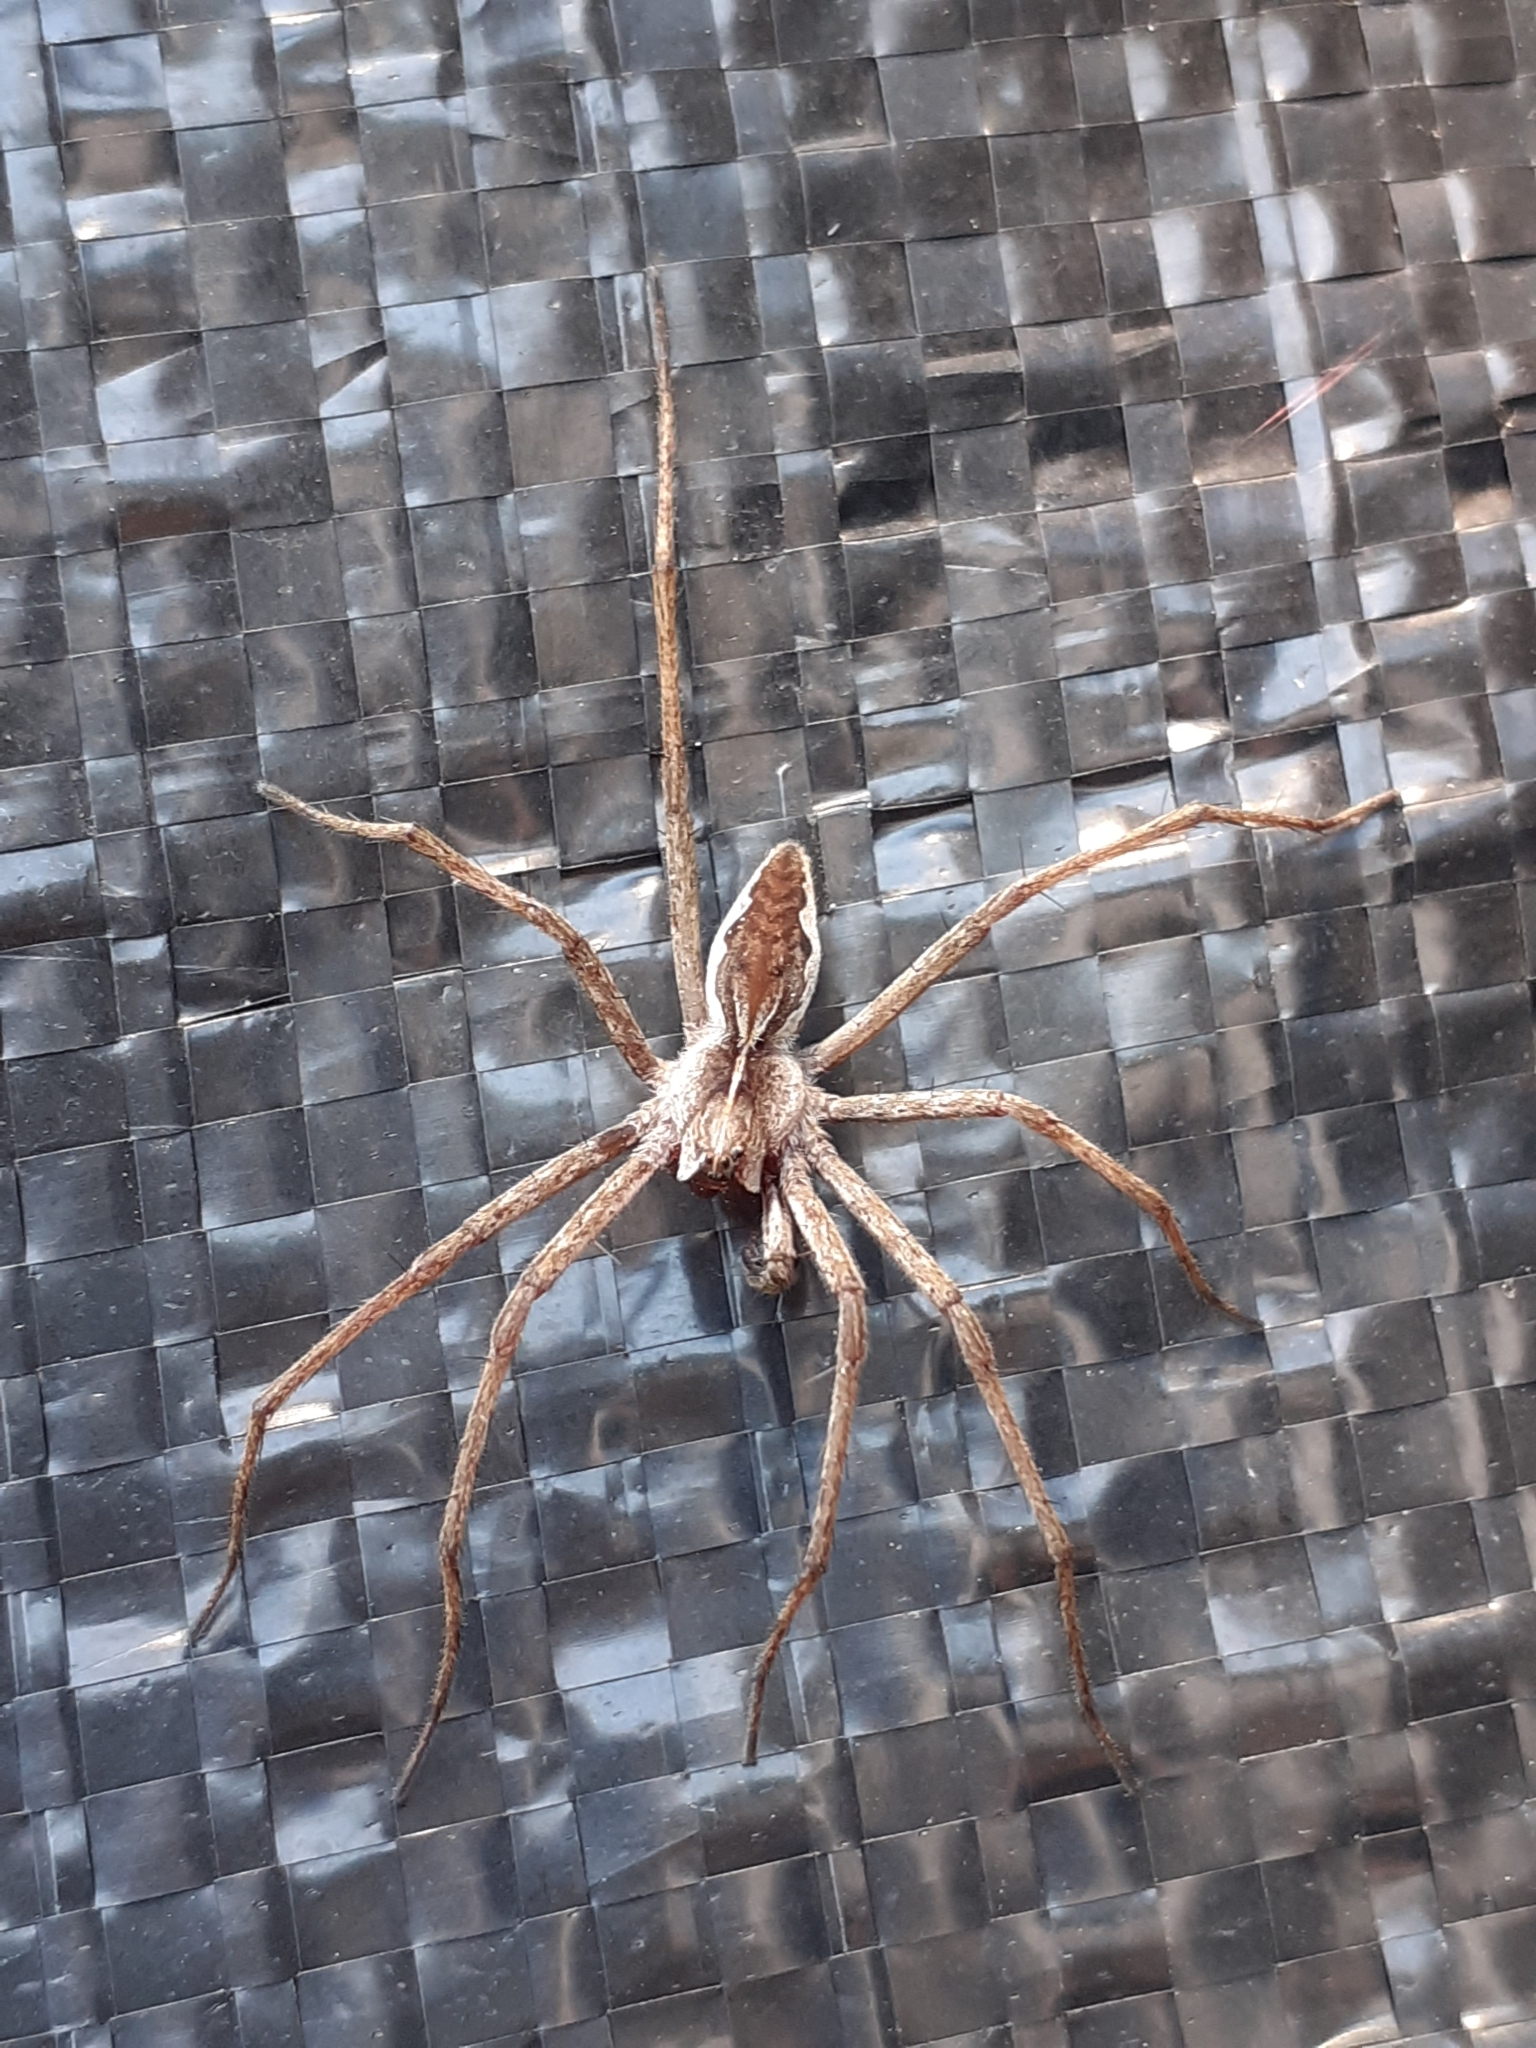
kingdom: Animalia
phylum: Arthropoda
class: Arachnida
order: Araneae
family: Pisauridae
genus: Pisaura
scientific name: Pisaura mirabilis
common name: Tent spider
